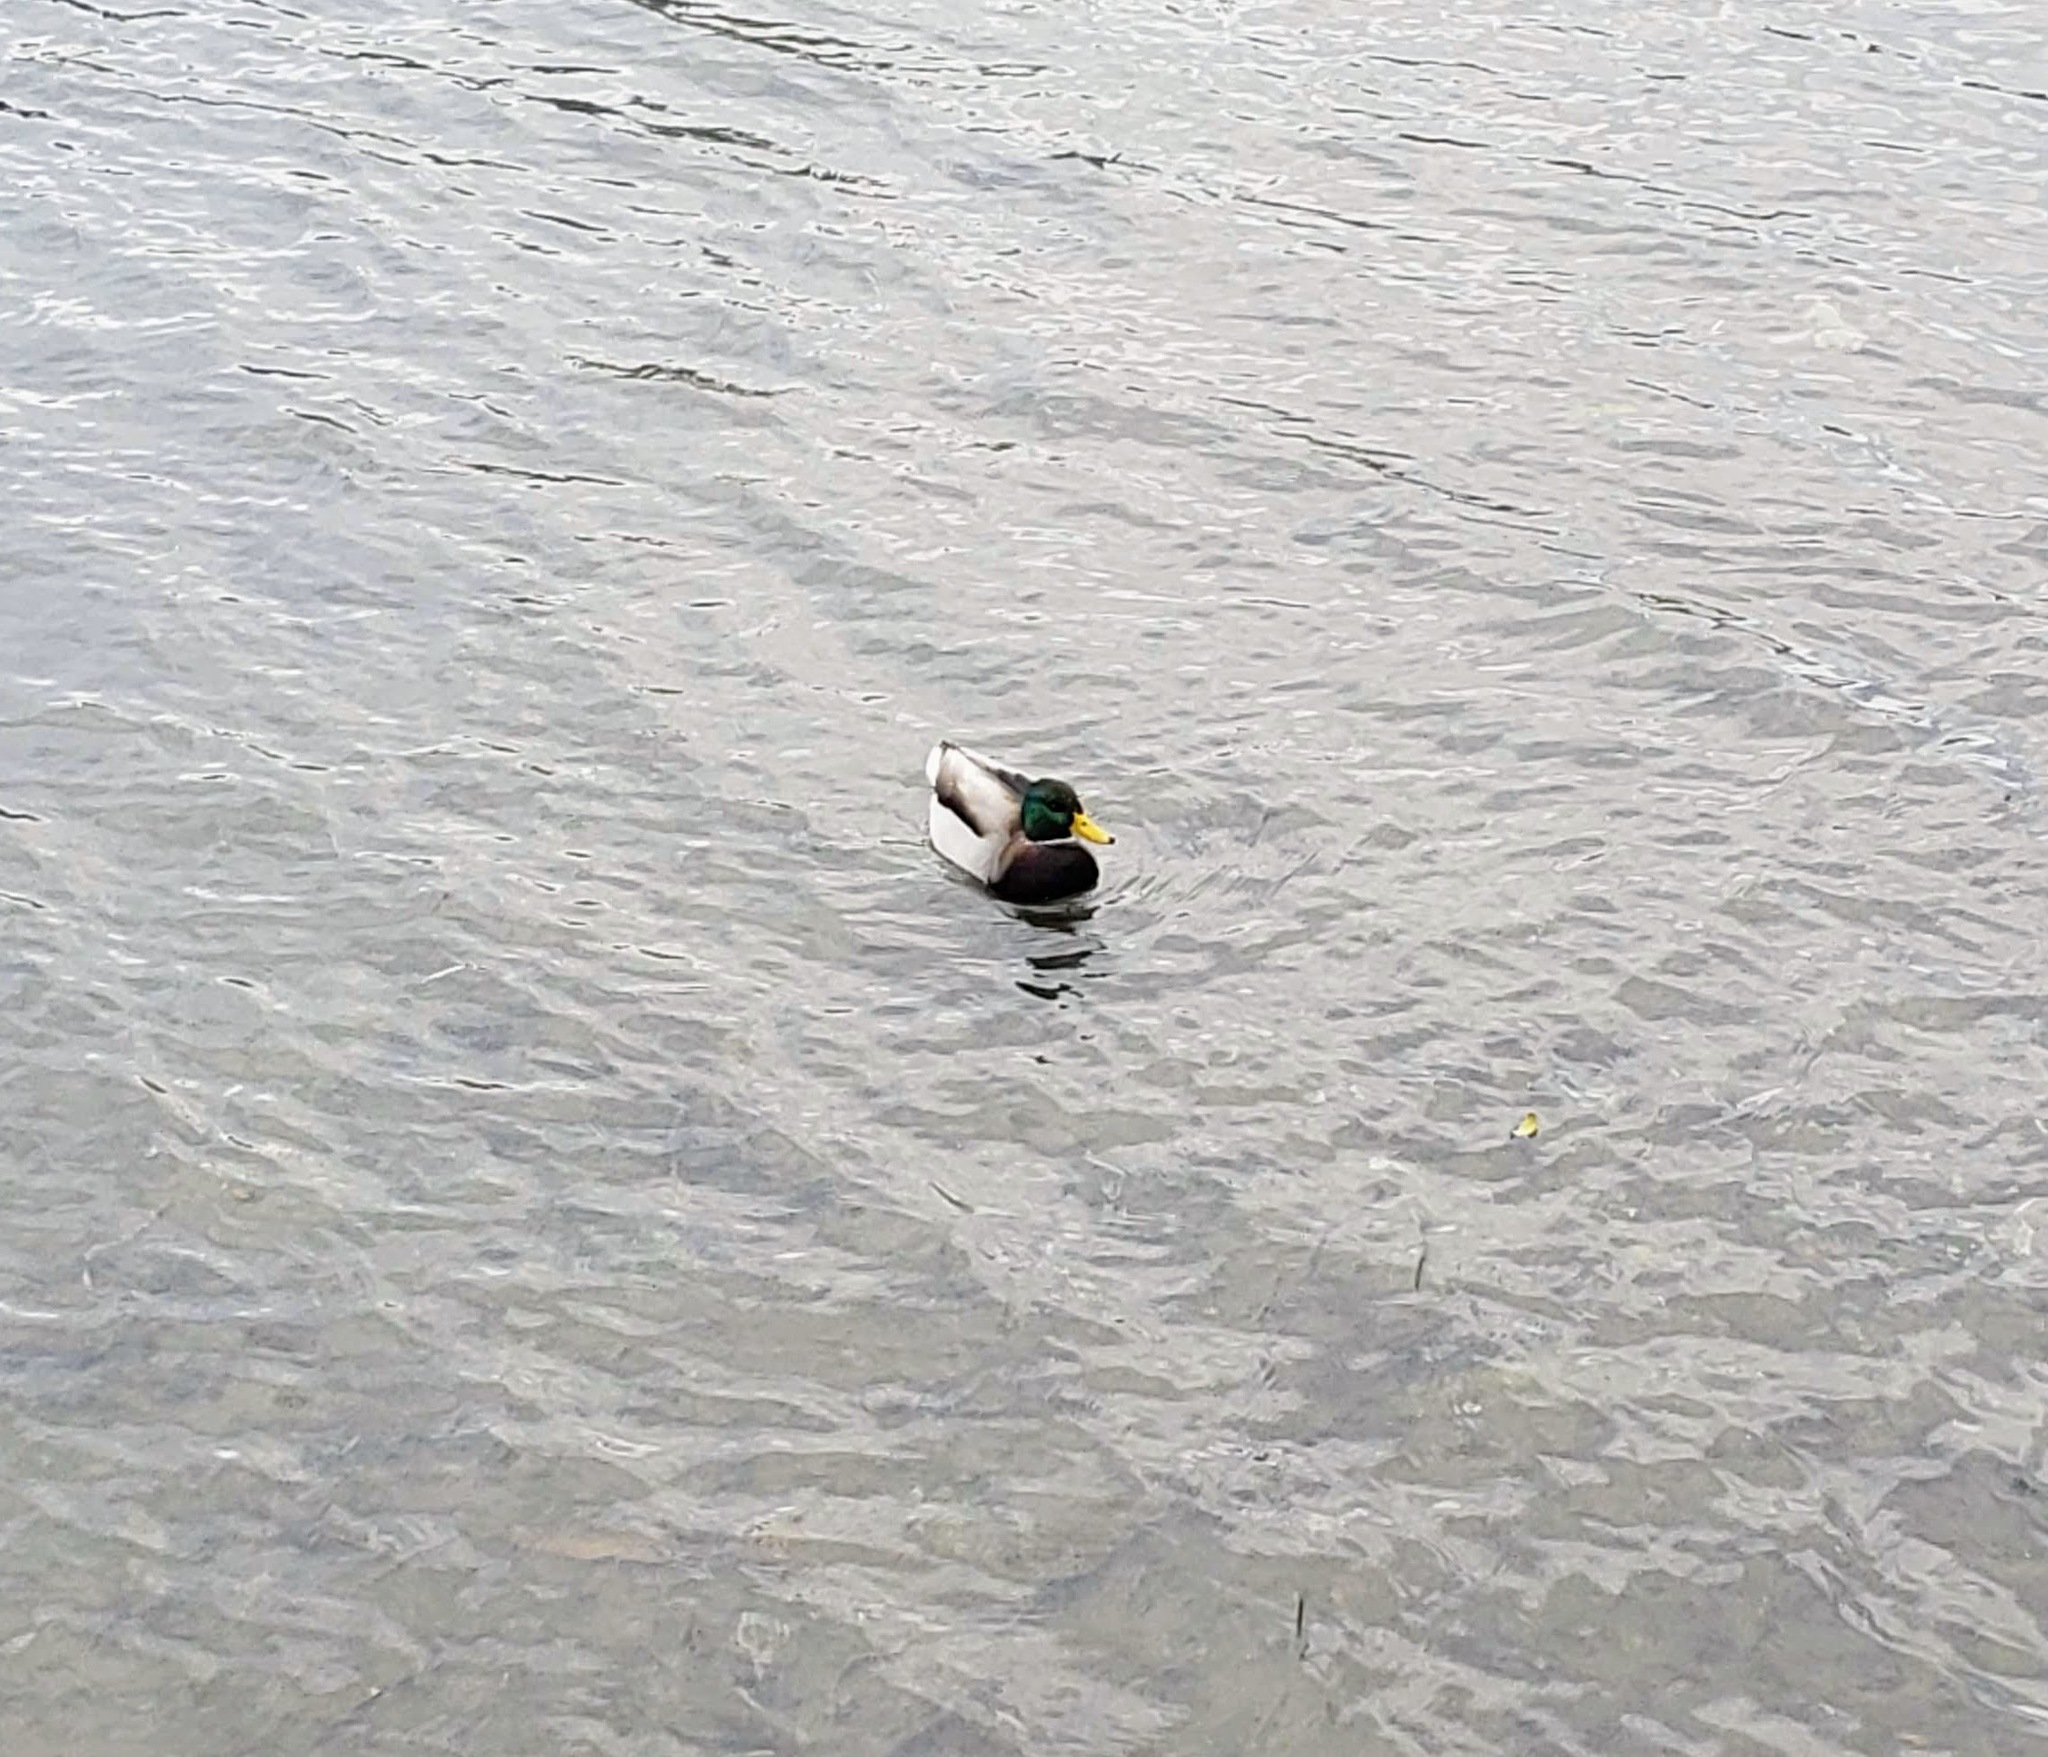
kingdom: Animalia
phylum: Chordata
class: Aves
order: Anseriformes
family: Anatidae
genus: Anas
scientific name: Anas platyrhynchos
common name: Mallard
